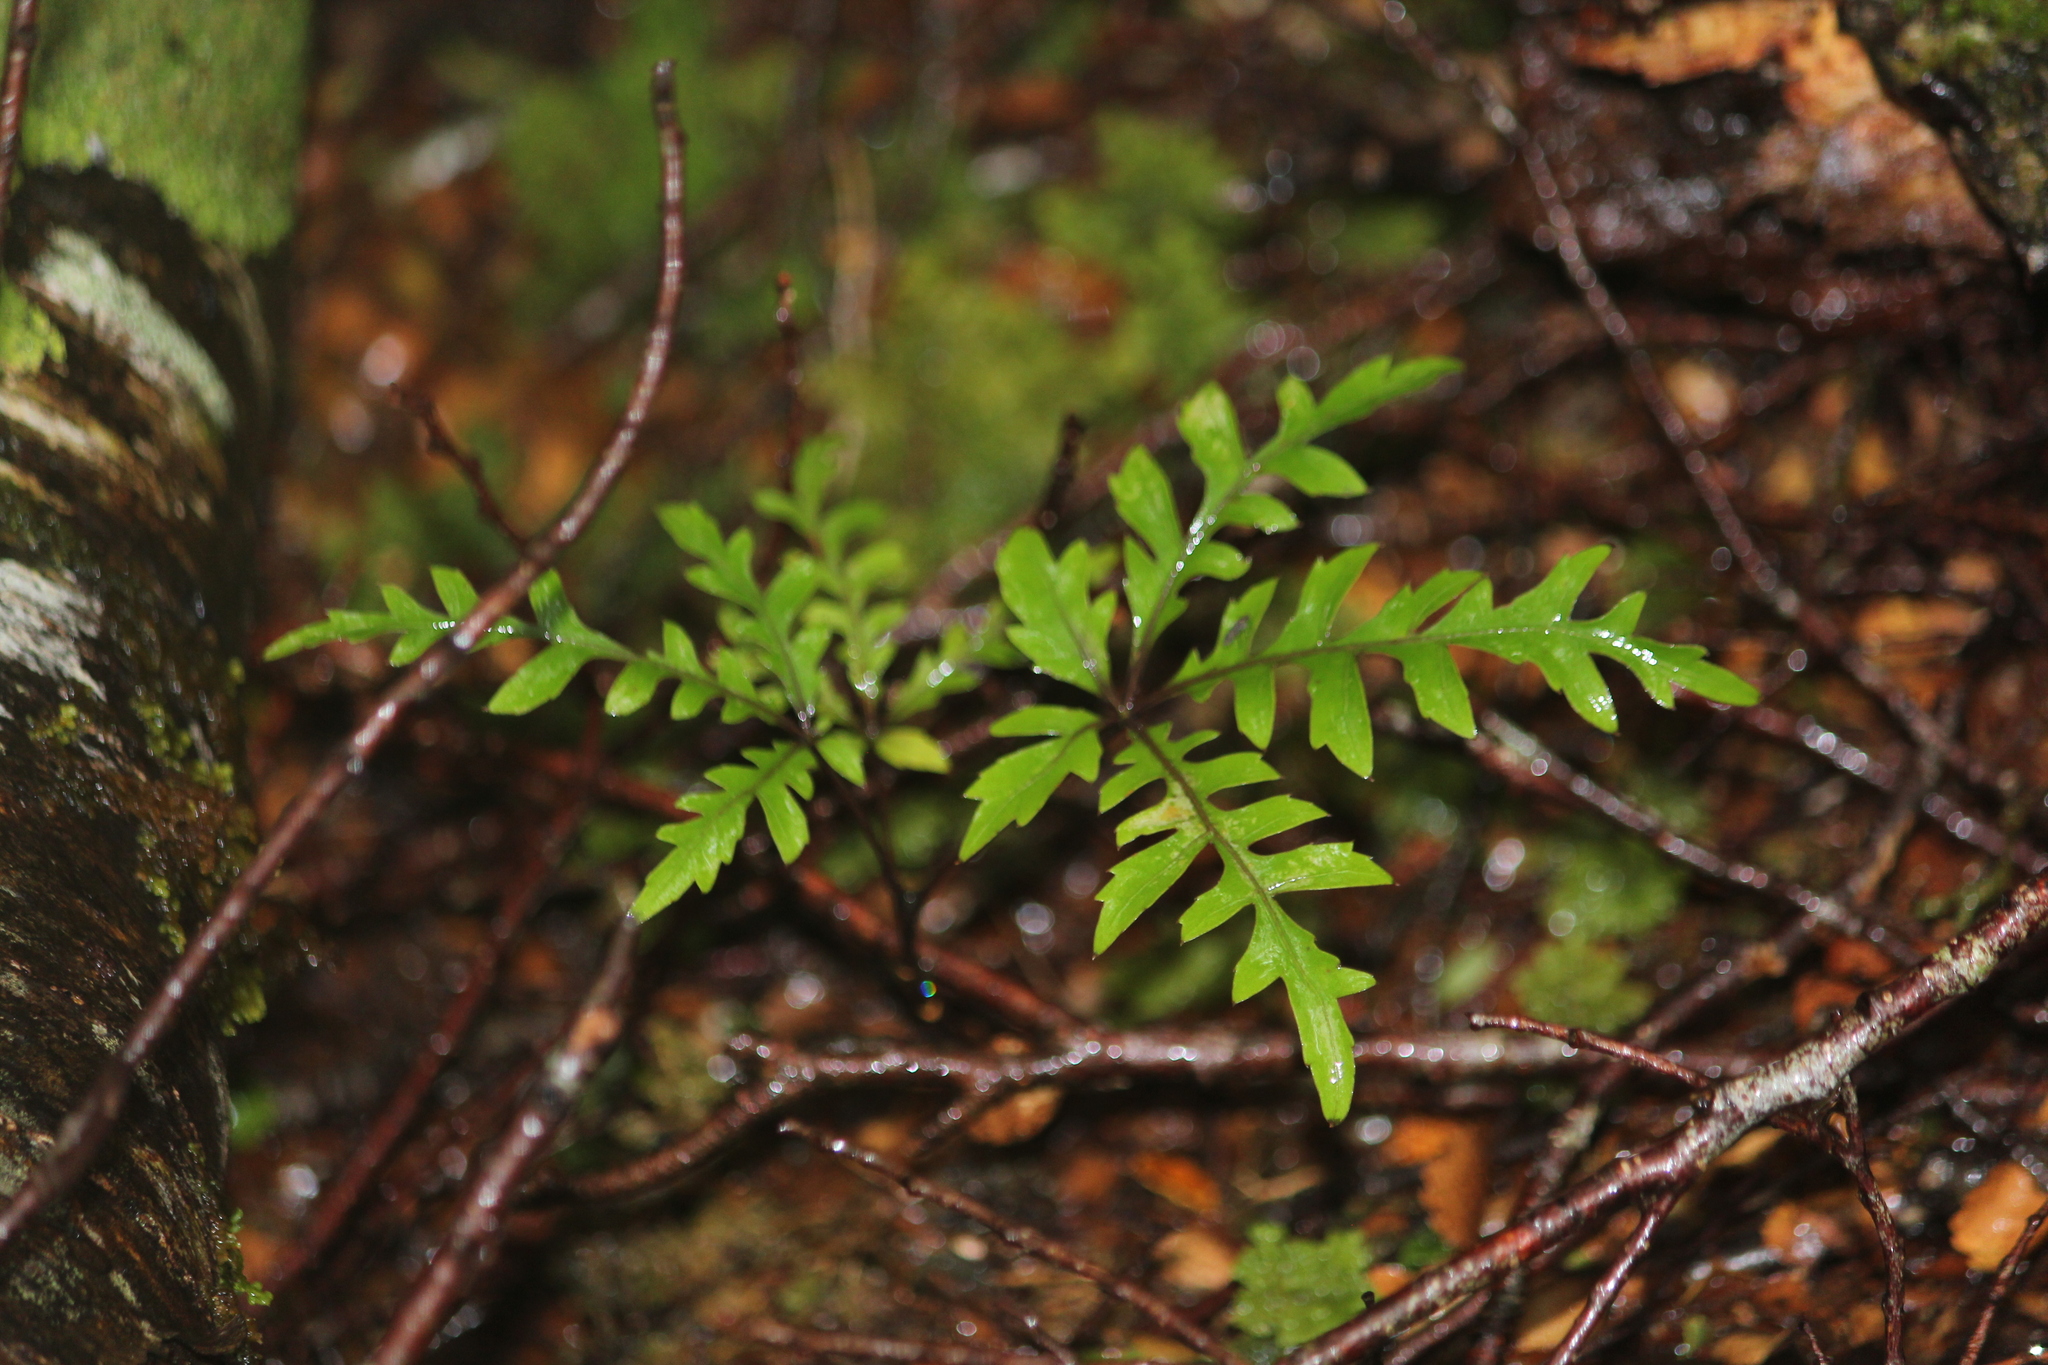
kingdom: Plantae
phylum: Tracheophyta
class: Magnoliopsida
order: Apiales
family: Araliaceae
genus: Raukaua
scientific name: Raukaua simplex
